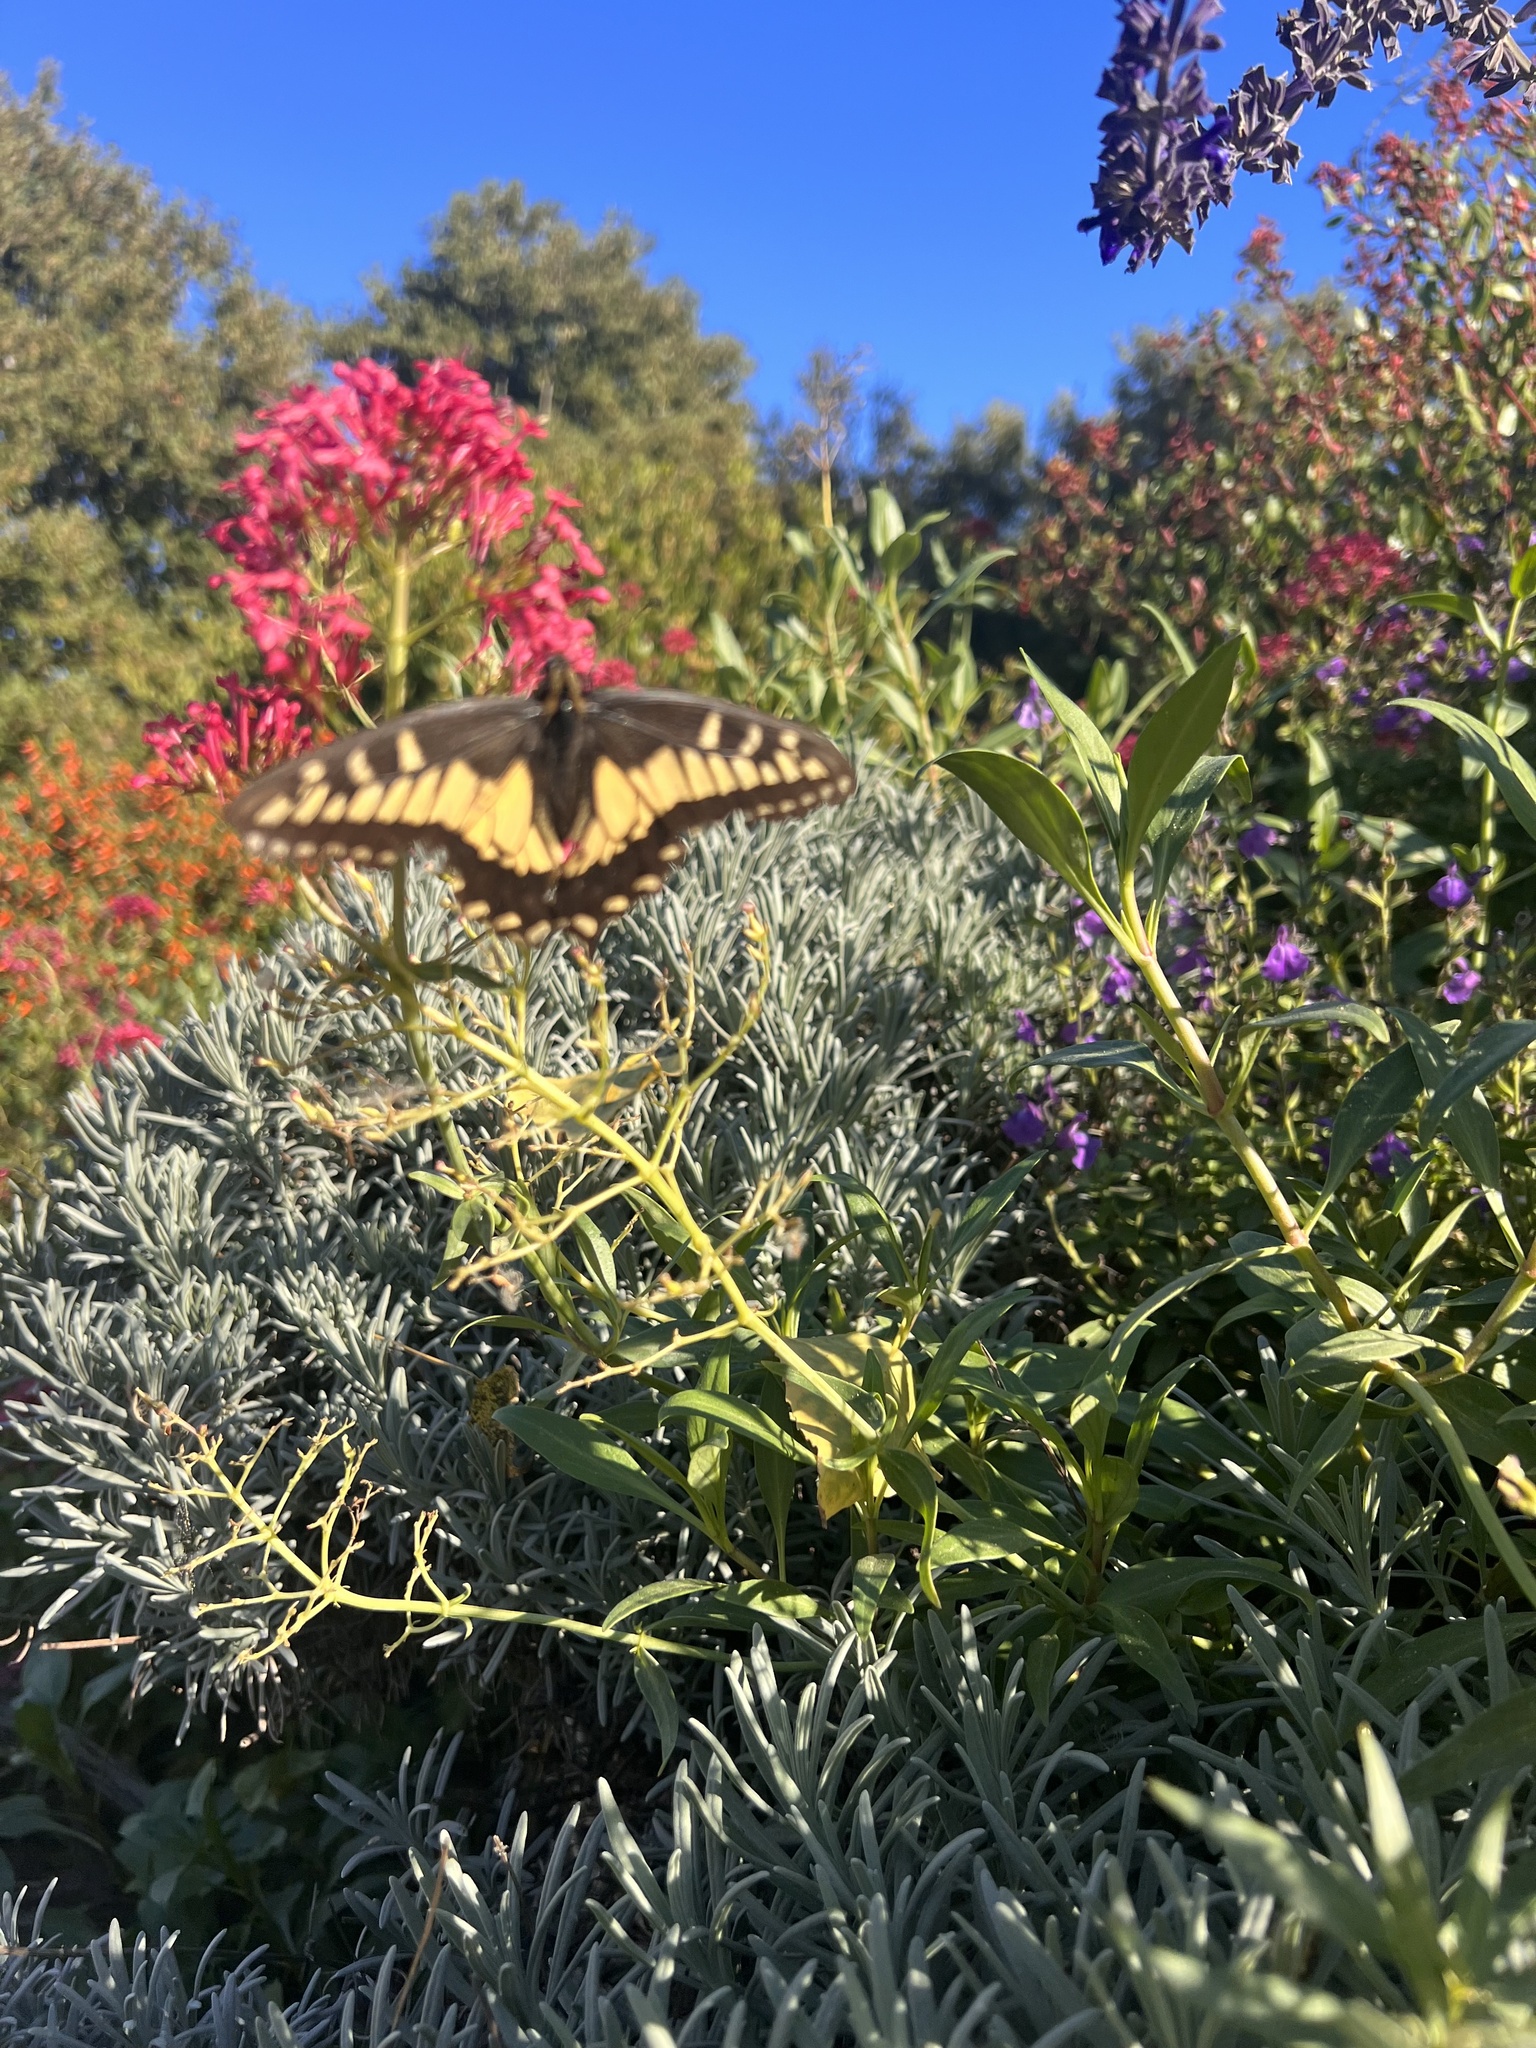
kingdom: Animalia
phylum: Arthropoda
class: Insecta
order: Lepidoptera
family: Papilionidae
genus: Papilio
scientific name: Papilio zelicaon
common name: Anise swallowtail
